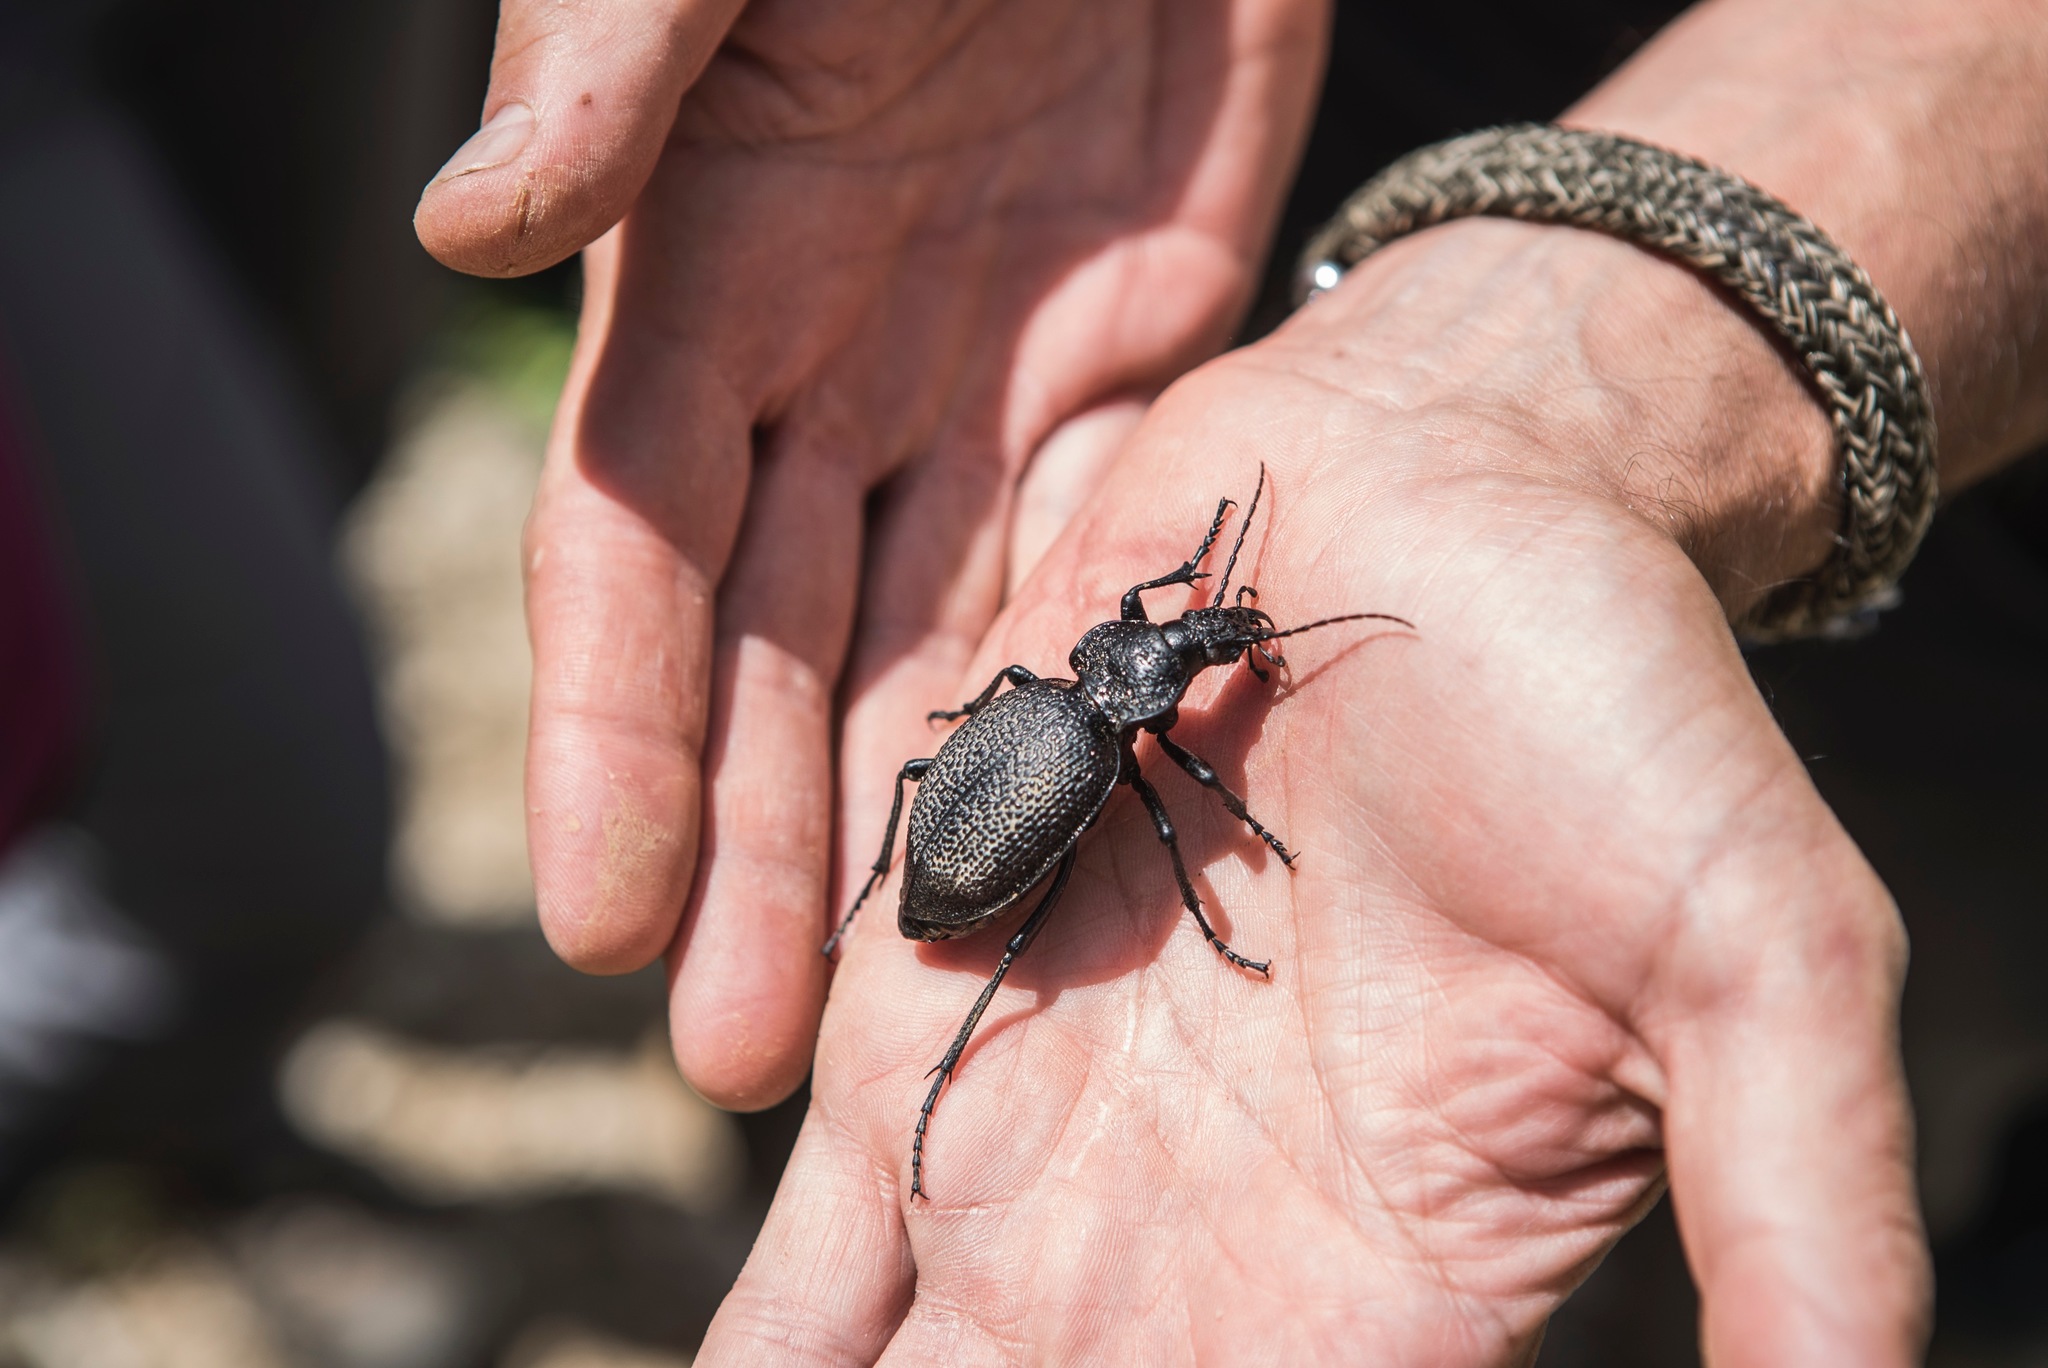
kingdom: Animalia
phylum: Arthropoda
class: Insecta
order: Coleoptera
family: Carabidae
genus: Carabus
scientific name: Carabus gigas
